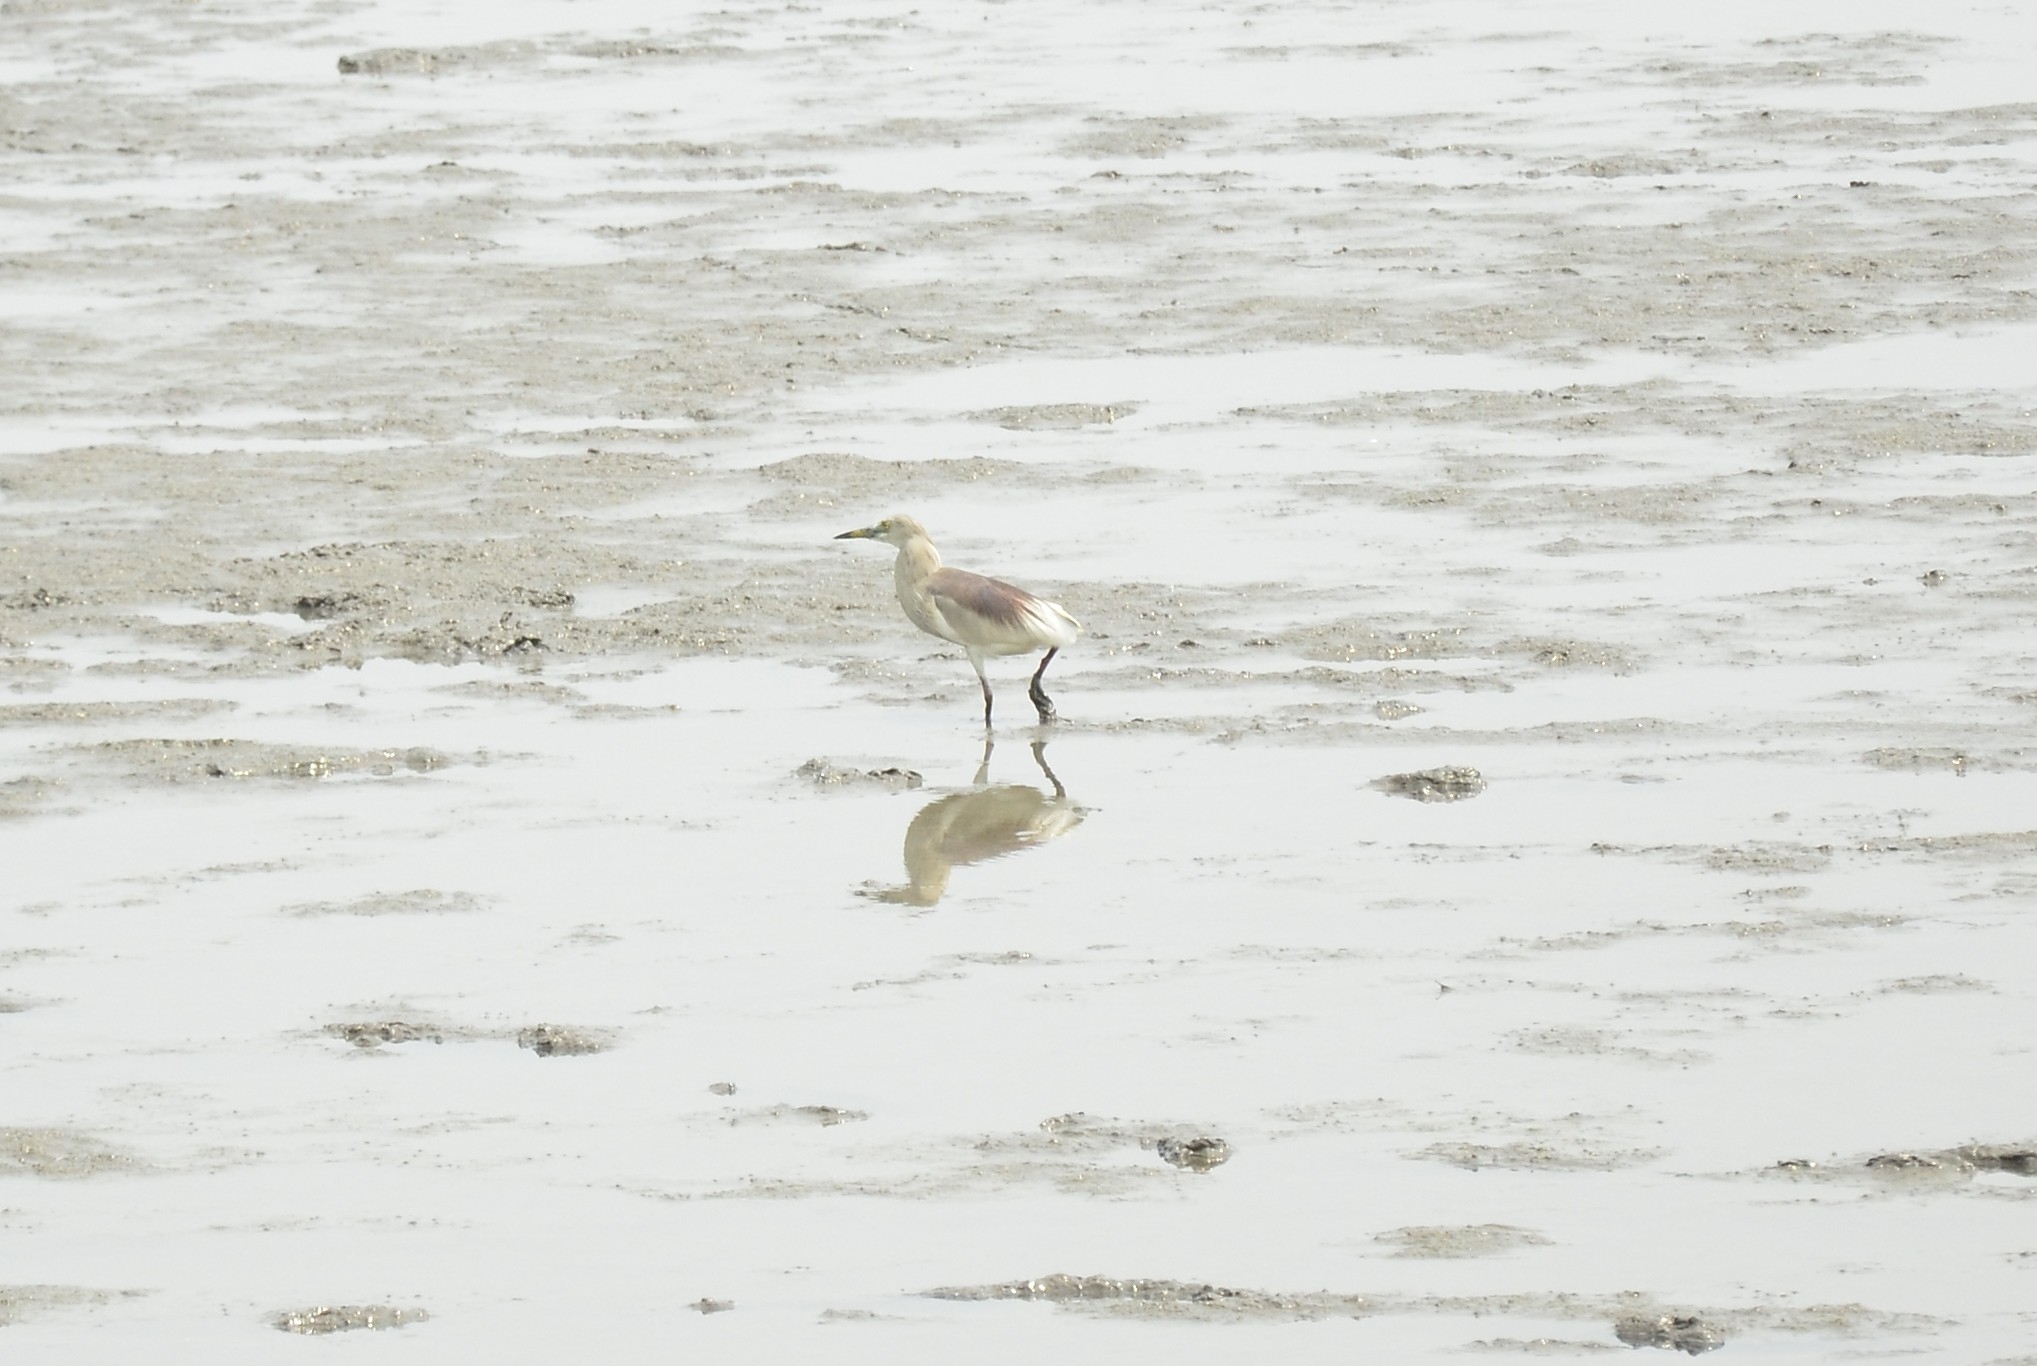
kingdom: Animalia
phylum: Chordata
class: Aves
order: Pelecaniformes
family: Ardeidae
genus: Ardeola
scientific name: Ardeola grayii
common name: Indian pond heron
